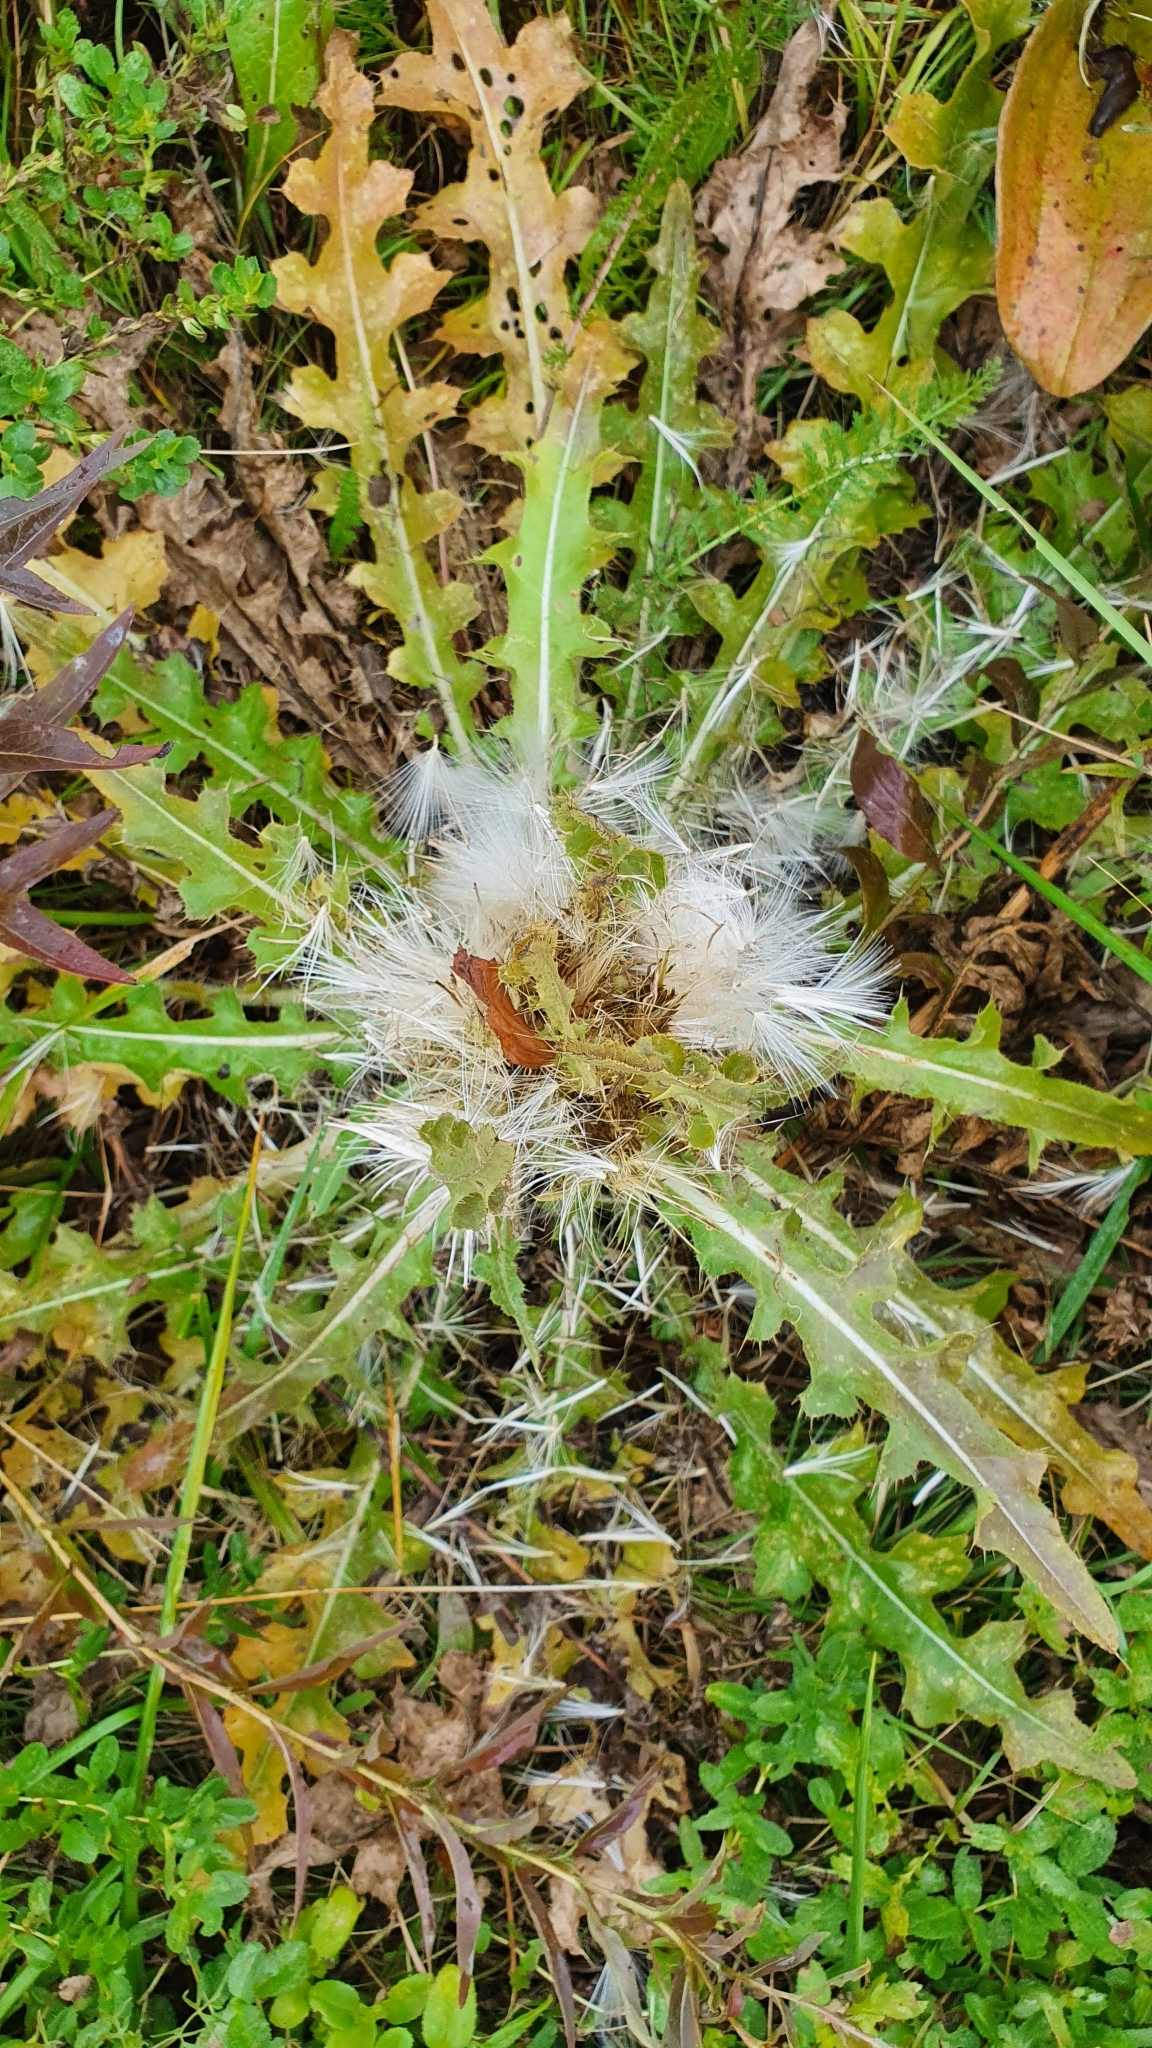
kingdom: Plantae
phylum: Tracheophyta
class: Magnoliopsida
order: Asterales
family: Asteraceae
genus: Cirsium
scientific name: Cirsium esculentum
